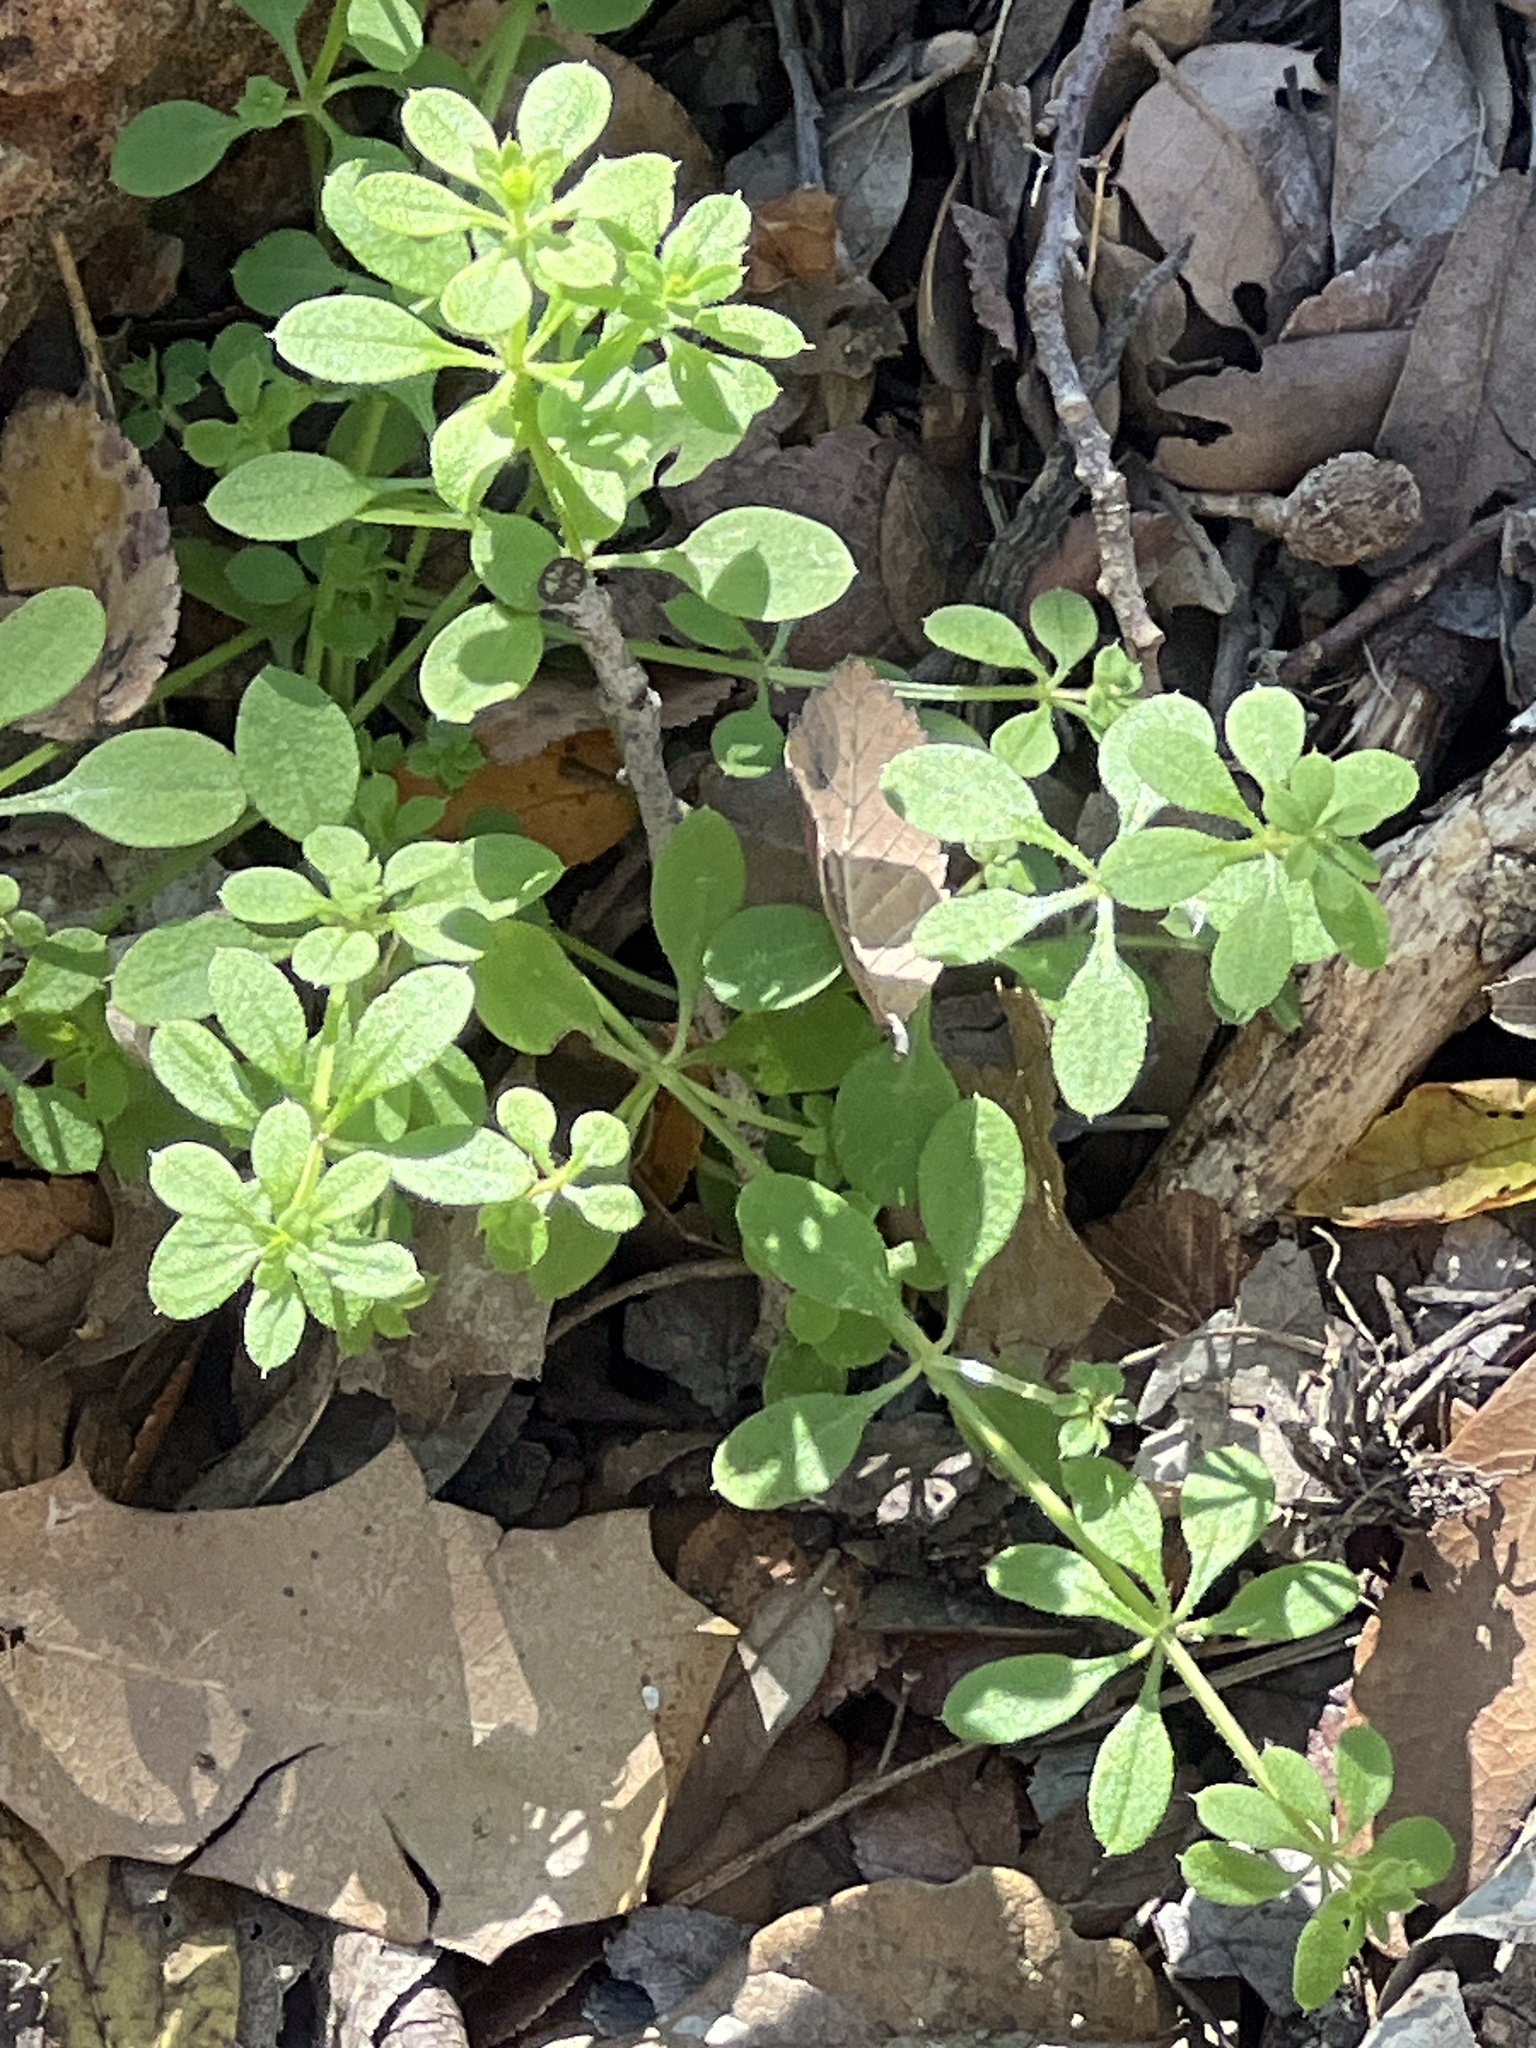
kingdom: Plantae
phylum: Tracheophyta
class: Magnoliopsida
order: Gentianales
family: Rubiaceae
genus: Galium
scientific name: Galium aparine
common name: Cleavers
